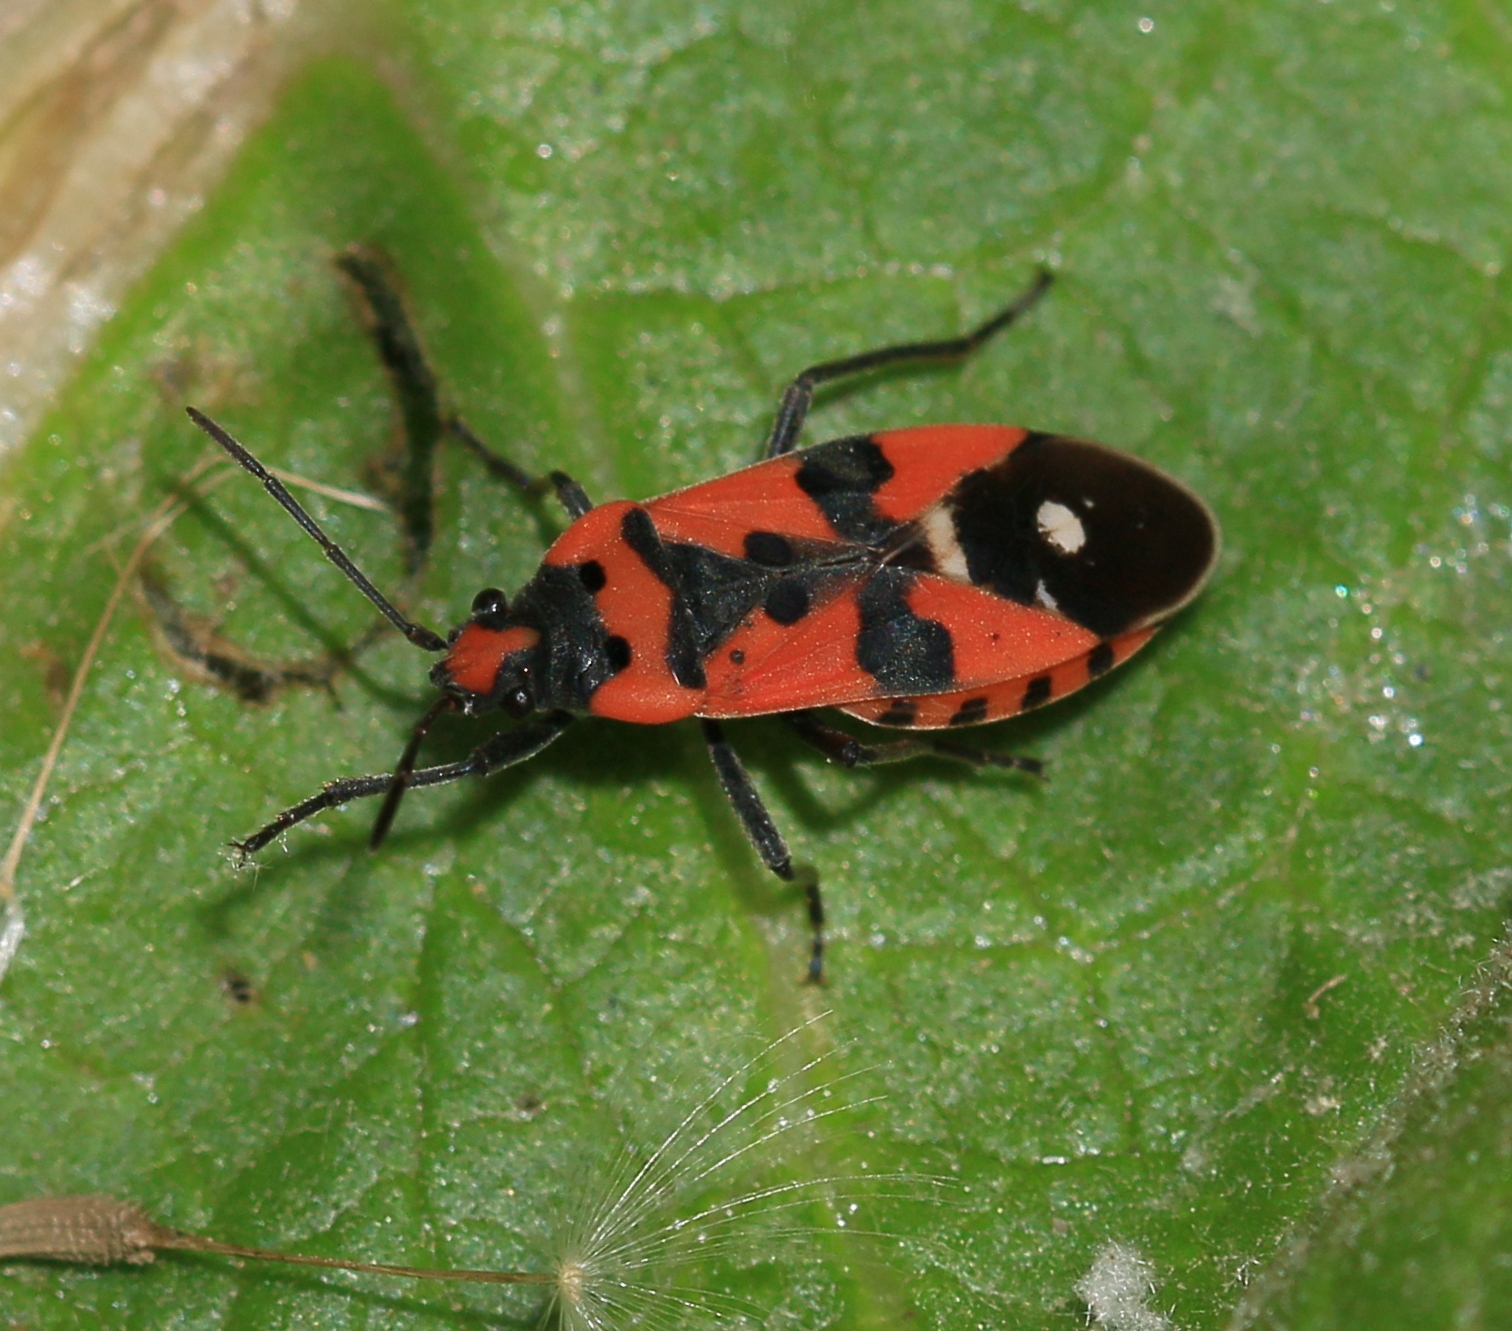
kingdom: Animalia
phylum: Arthropoda
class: Insecta
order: Hemiptera
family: Lygaeidae
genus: Lygaeus
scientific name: Lygaeus equestris
